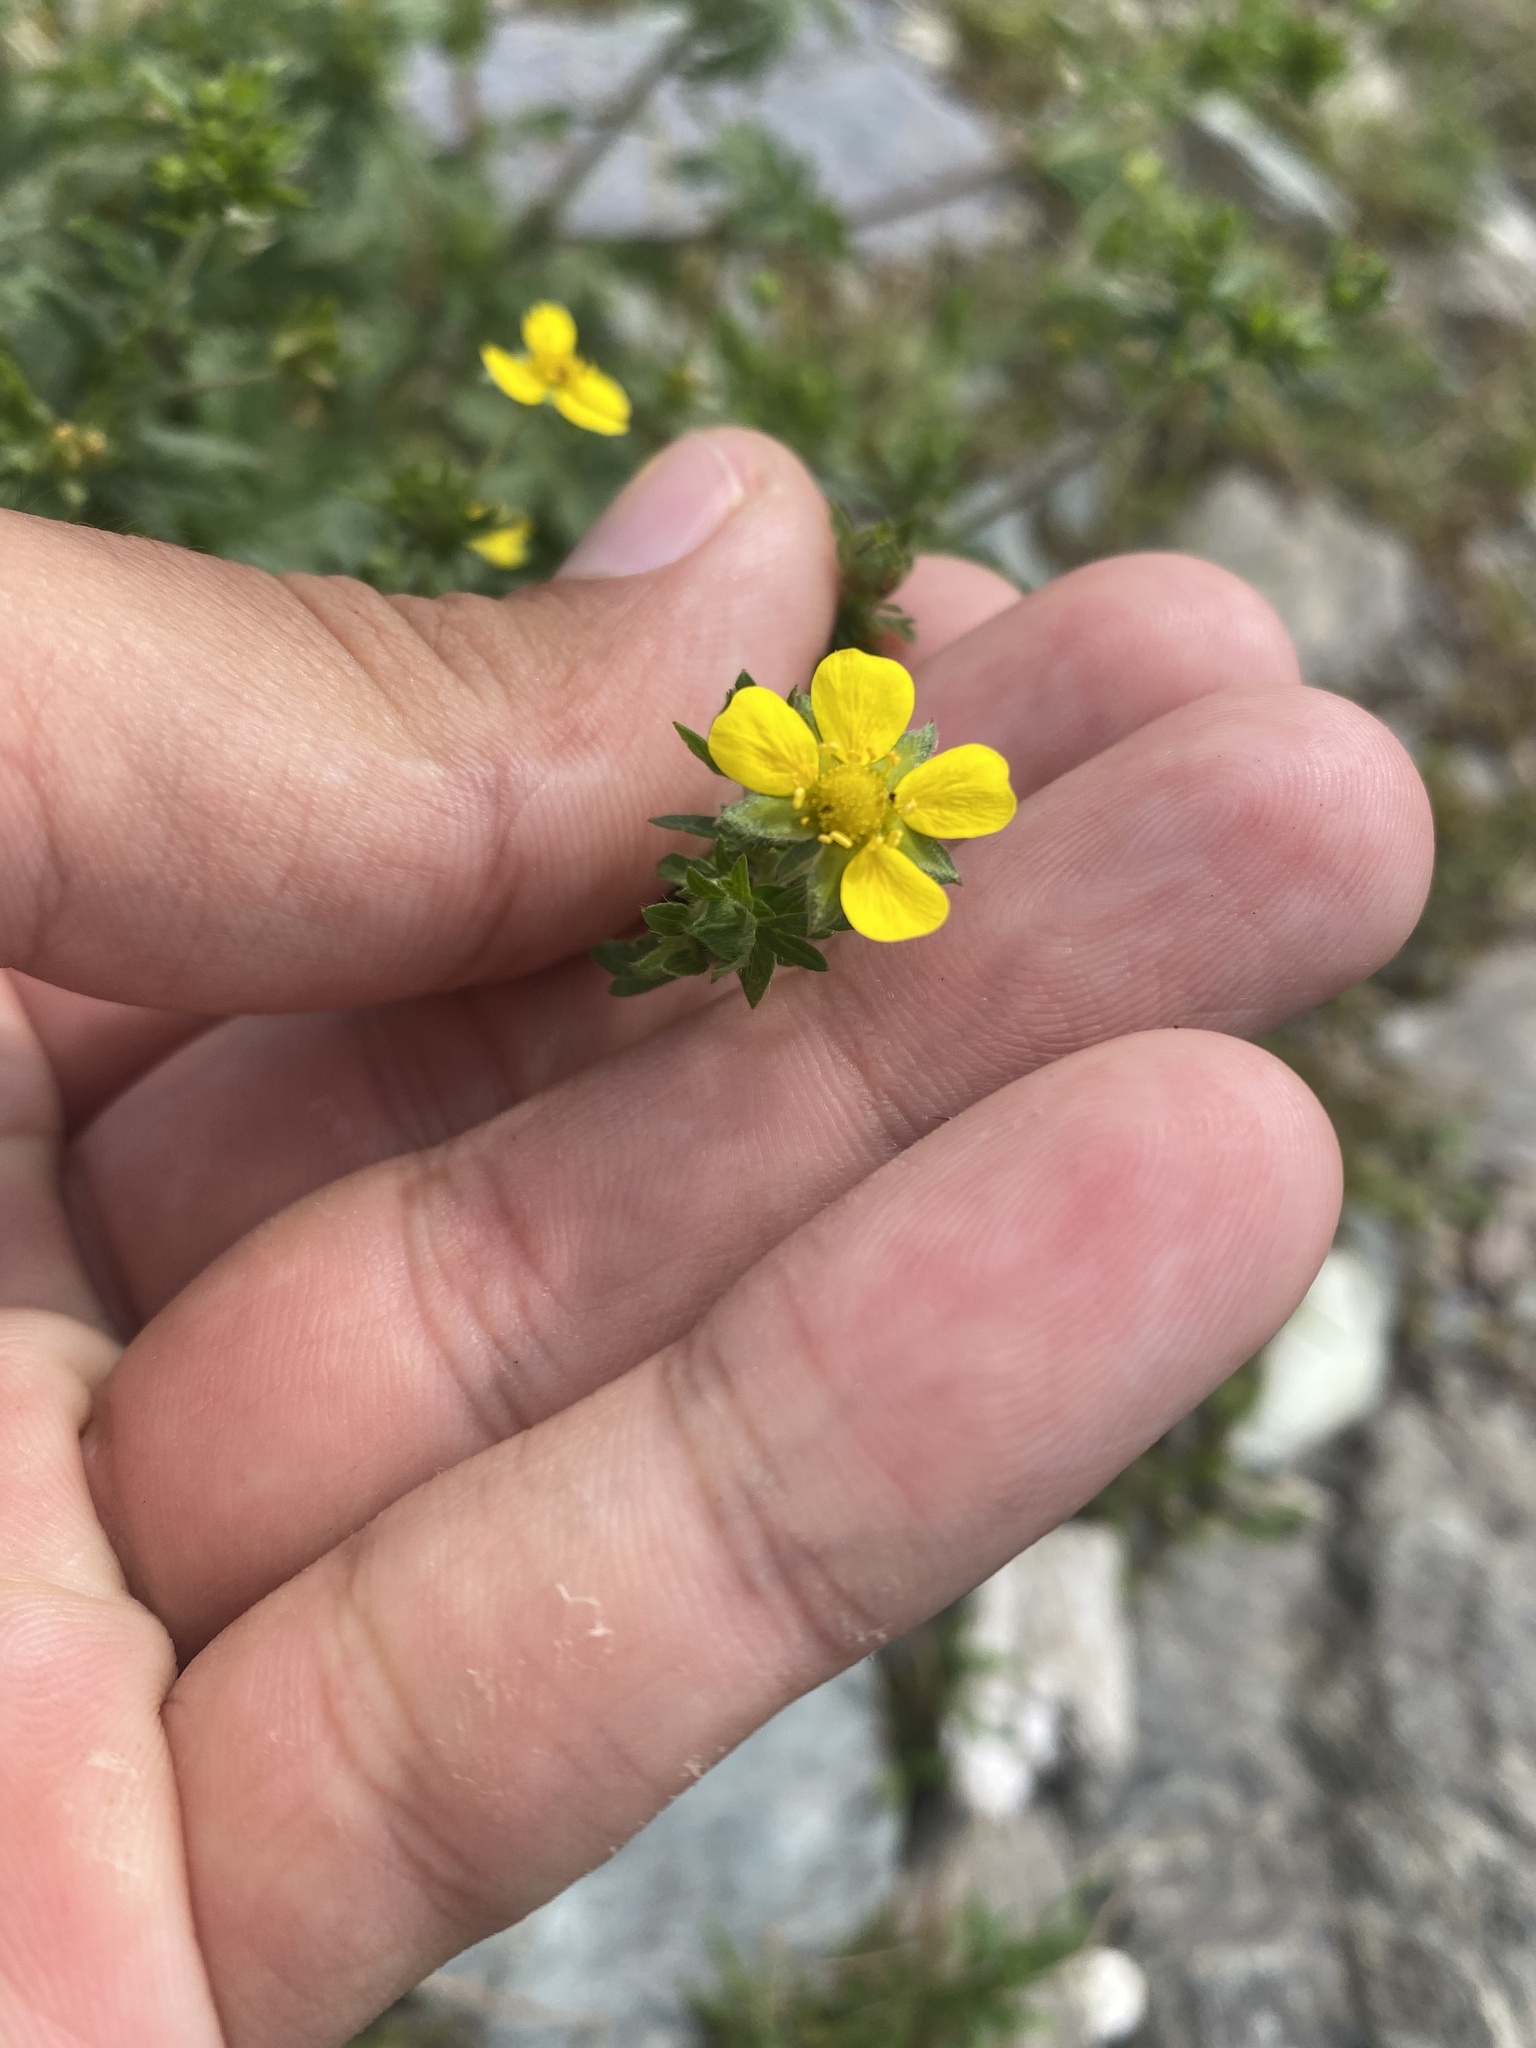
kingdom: Plantae
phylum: Tracheophyta
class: Magnoliopsida
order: Rosales
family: Rosaceae
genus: Potentilla
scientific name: Potentilla intermedia
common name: Downy cinquefoil
